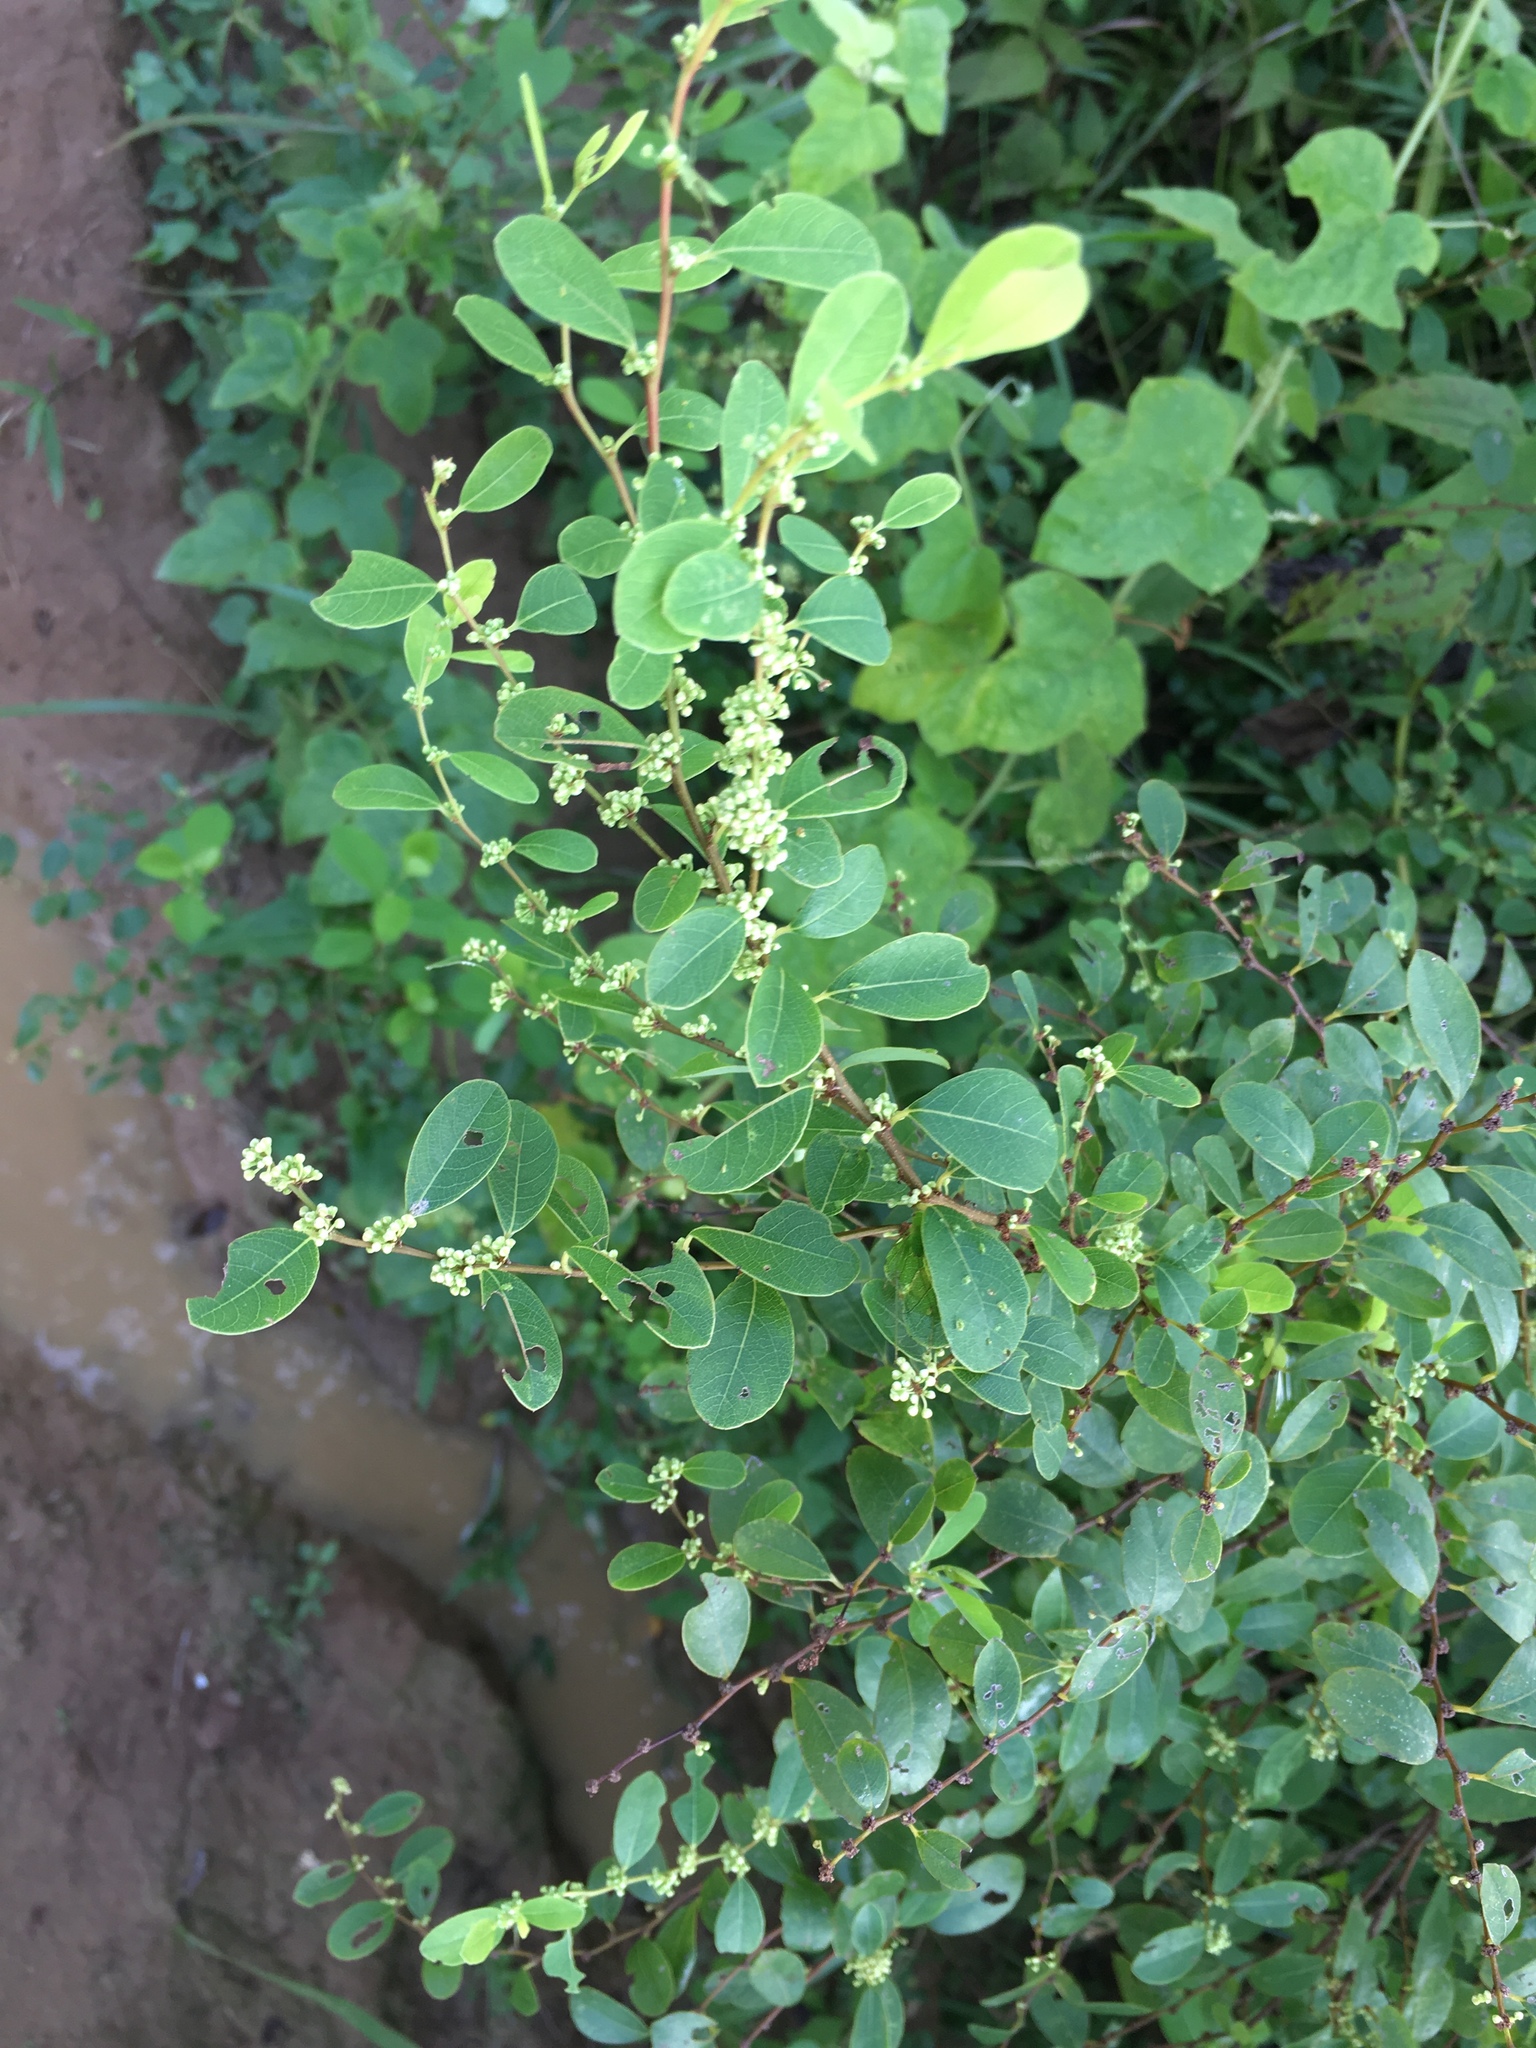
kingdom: Plantae
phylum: Tracheophyta
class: Magnoliopsida
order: Malpighiales
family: Phyllanthaceae
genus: Flueggea
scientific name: Flueggea virosa
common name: Common bushweed
